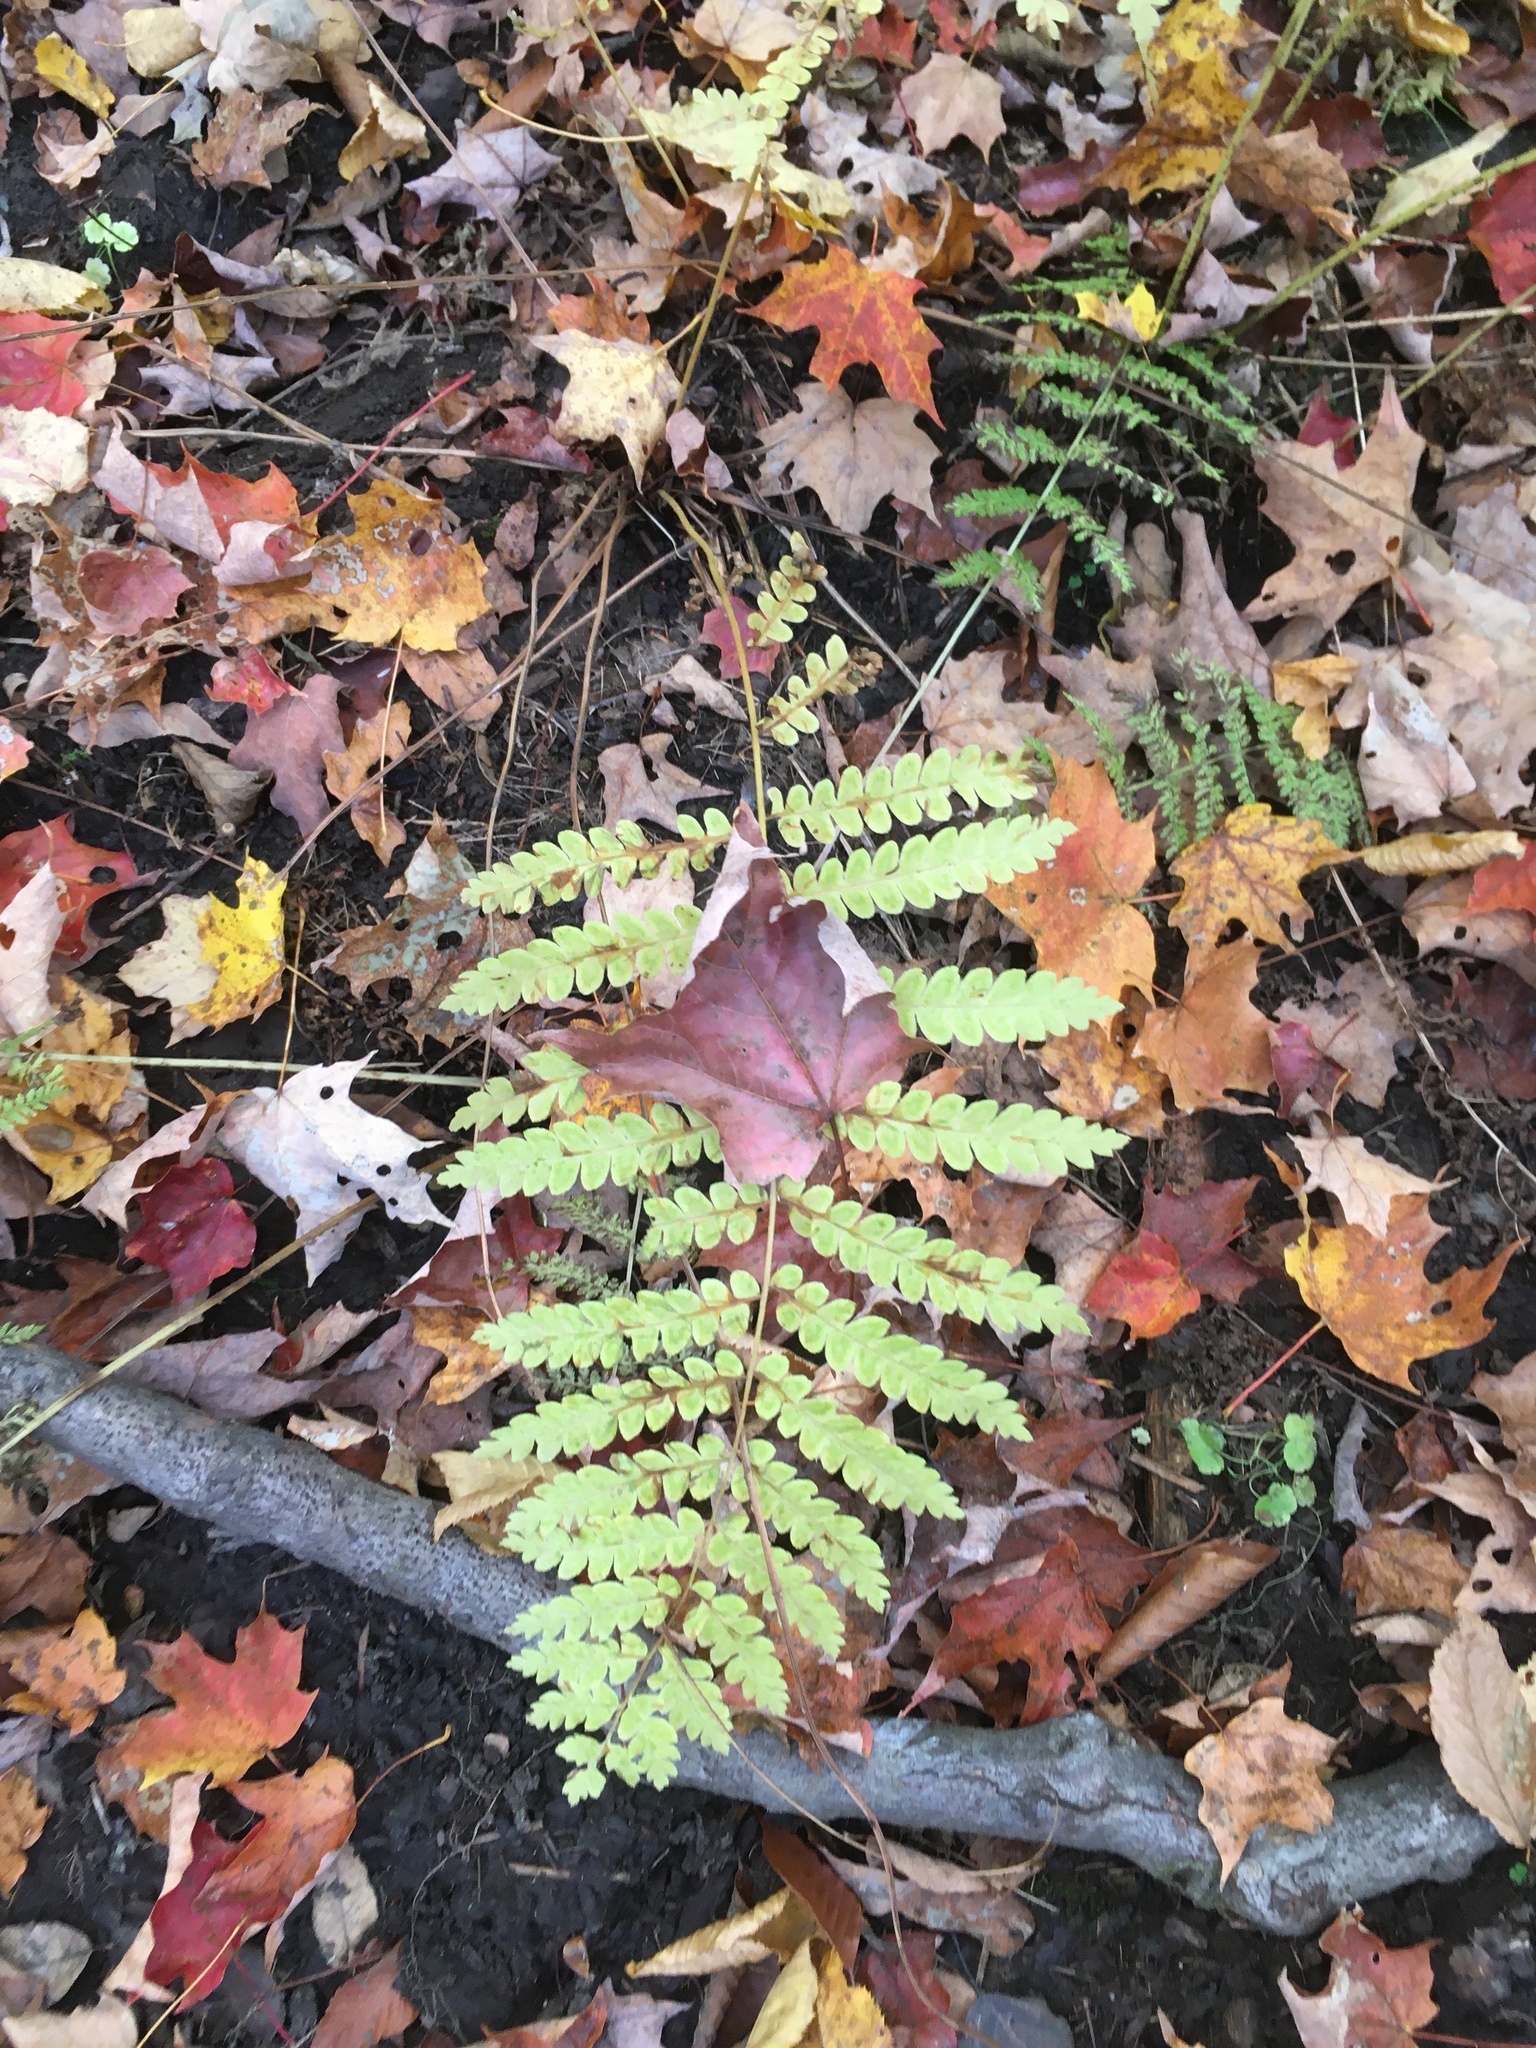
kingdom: Plantae
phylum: Tracheophyta
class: Polypodiopsida
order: Osmundales
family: Osmundaceae
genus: Claytosmunda
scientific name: Claytosmunda claytoniana
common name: Clayton's fern
